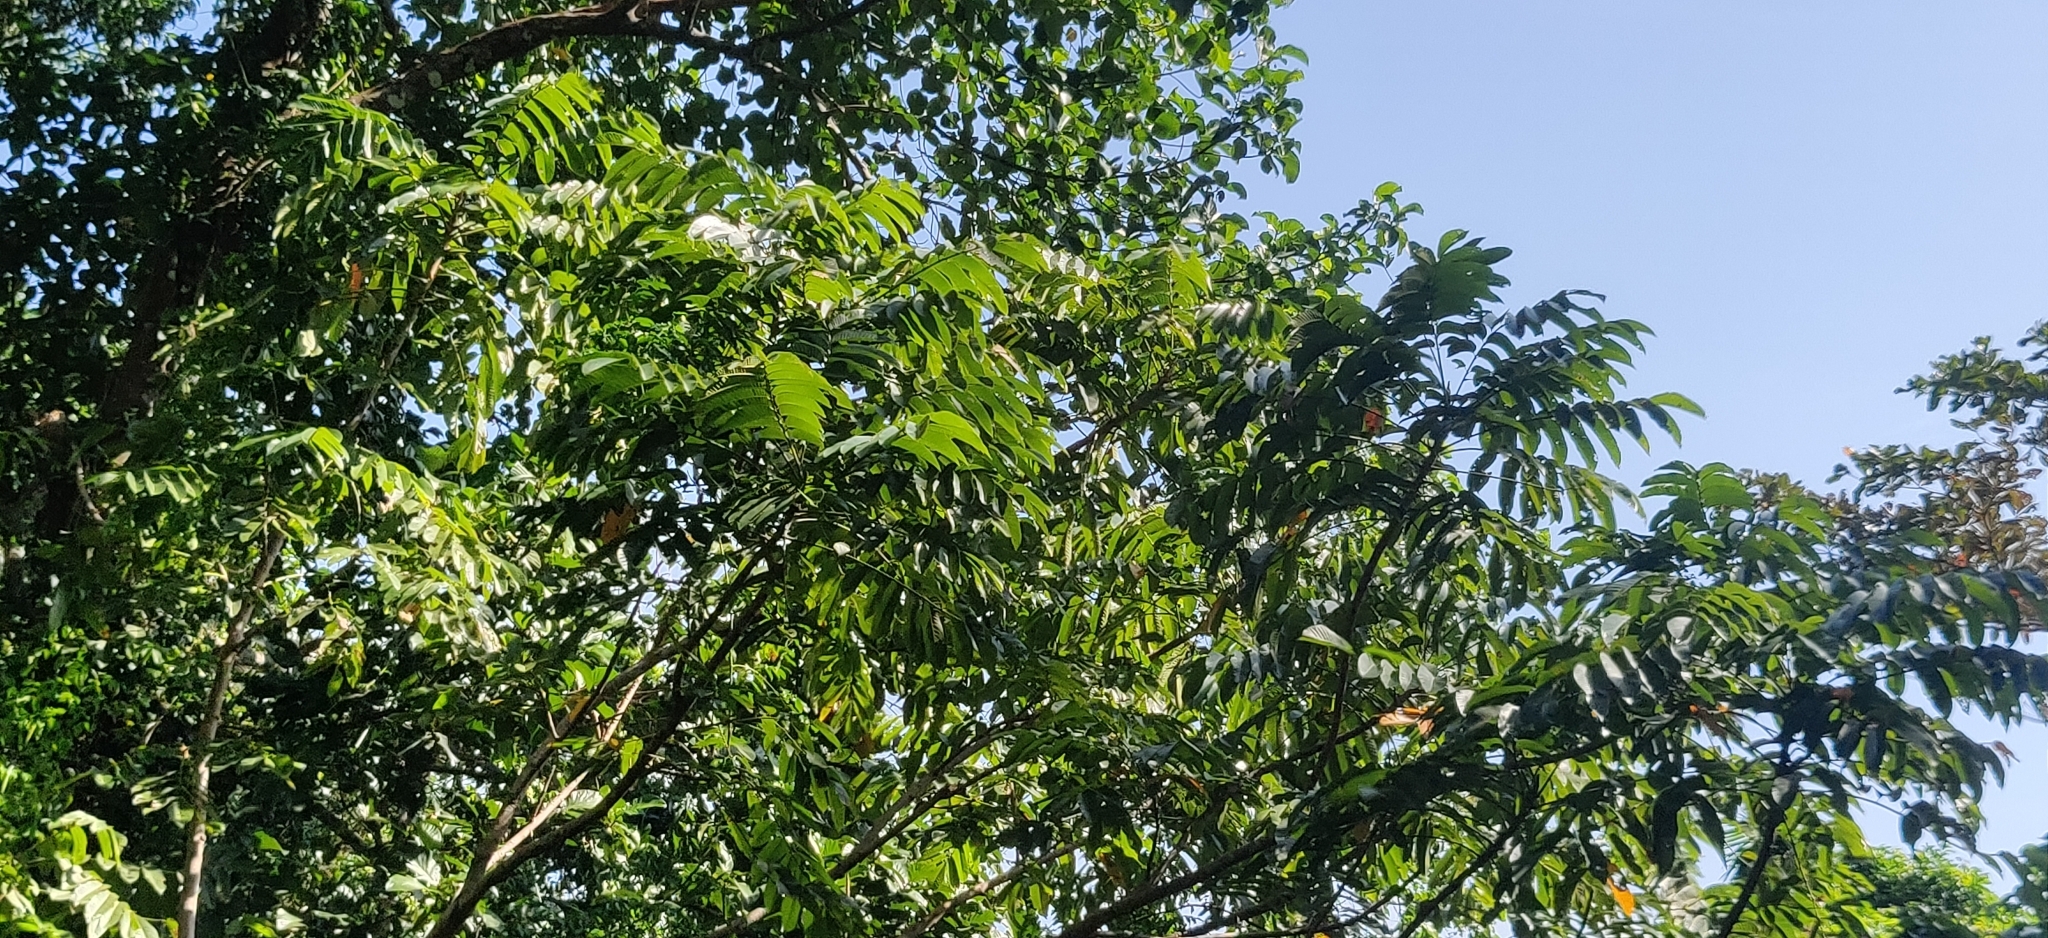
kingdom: Plantae
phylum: Tracheophyta
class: Magnoliopsida
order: Sapindales
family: Burseraceae
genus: Canarium
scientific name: Canarium euphyllum
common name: White dhup
